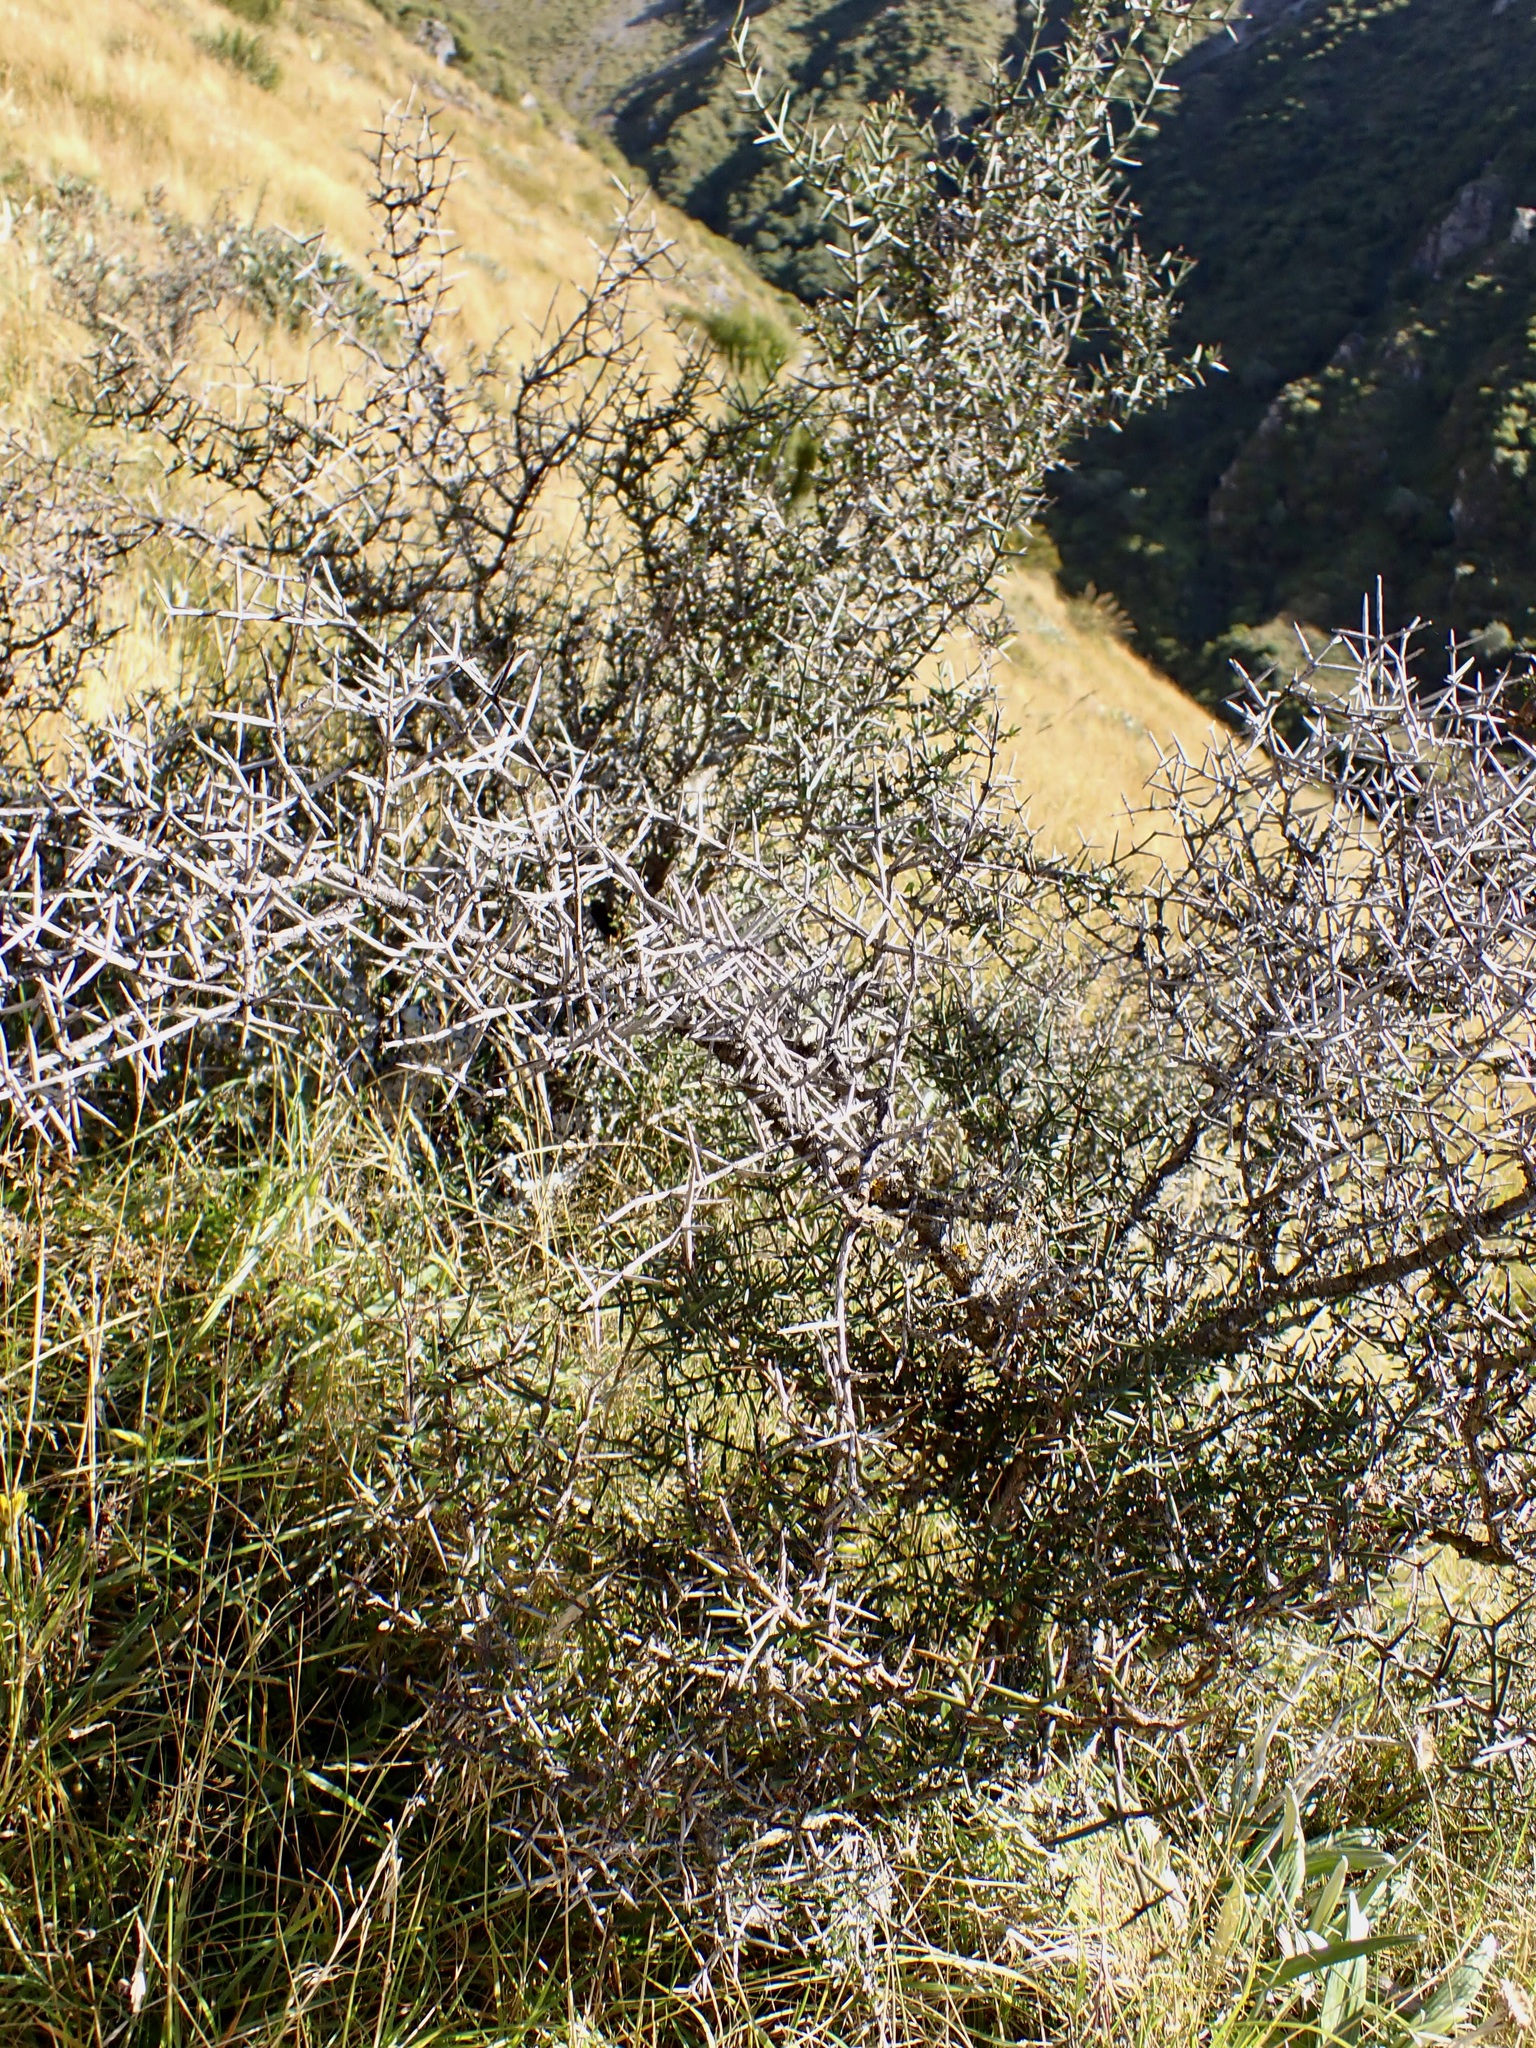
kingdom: Plantae
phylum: Tracheophyta
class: Magnoliopsida
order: Rosales
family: Rhamnaceae
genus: Discaria
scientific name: Discaria toumatou
